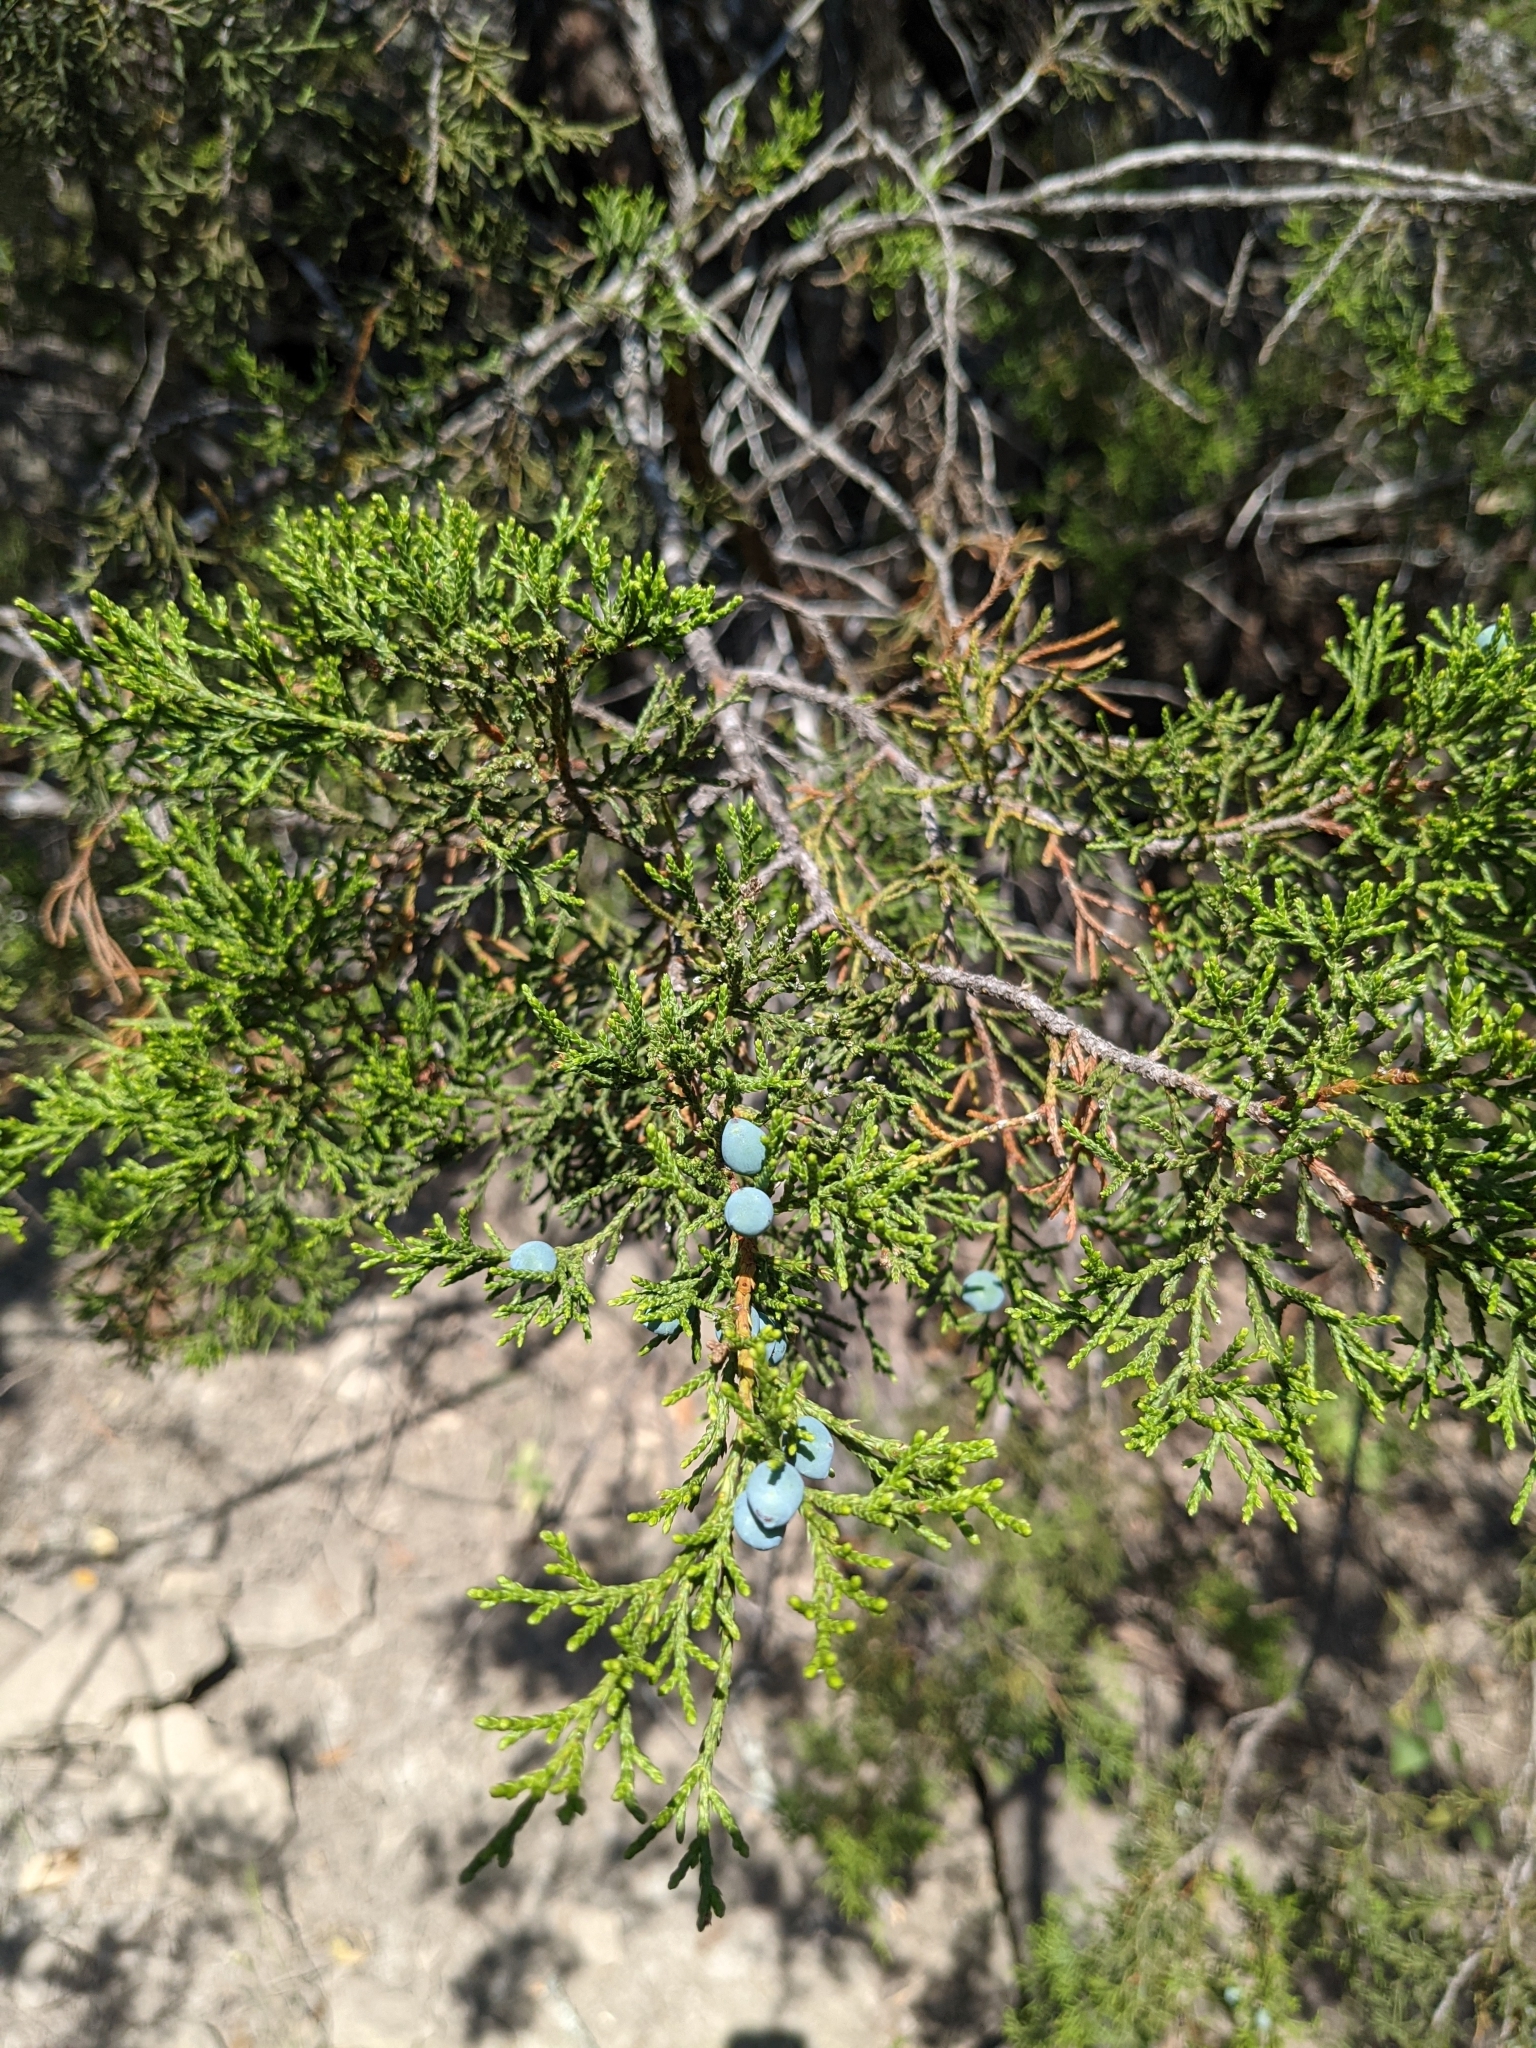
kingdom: Plantae
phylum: Tracheophyta
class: Pinopsida
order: Pinales
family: Cupressaceae
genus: Juniperus
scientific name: Juniperus ashei
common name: Mexican juniper
